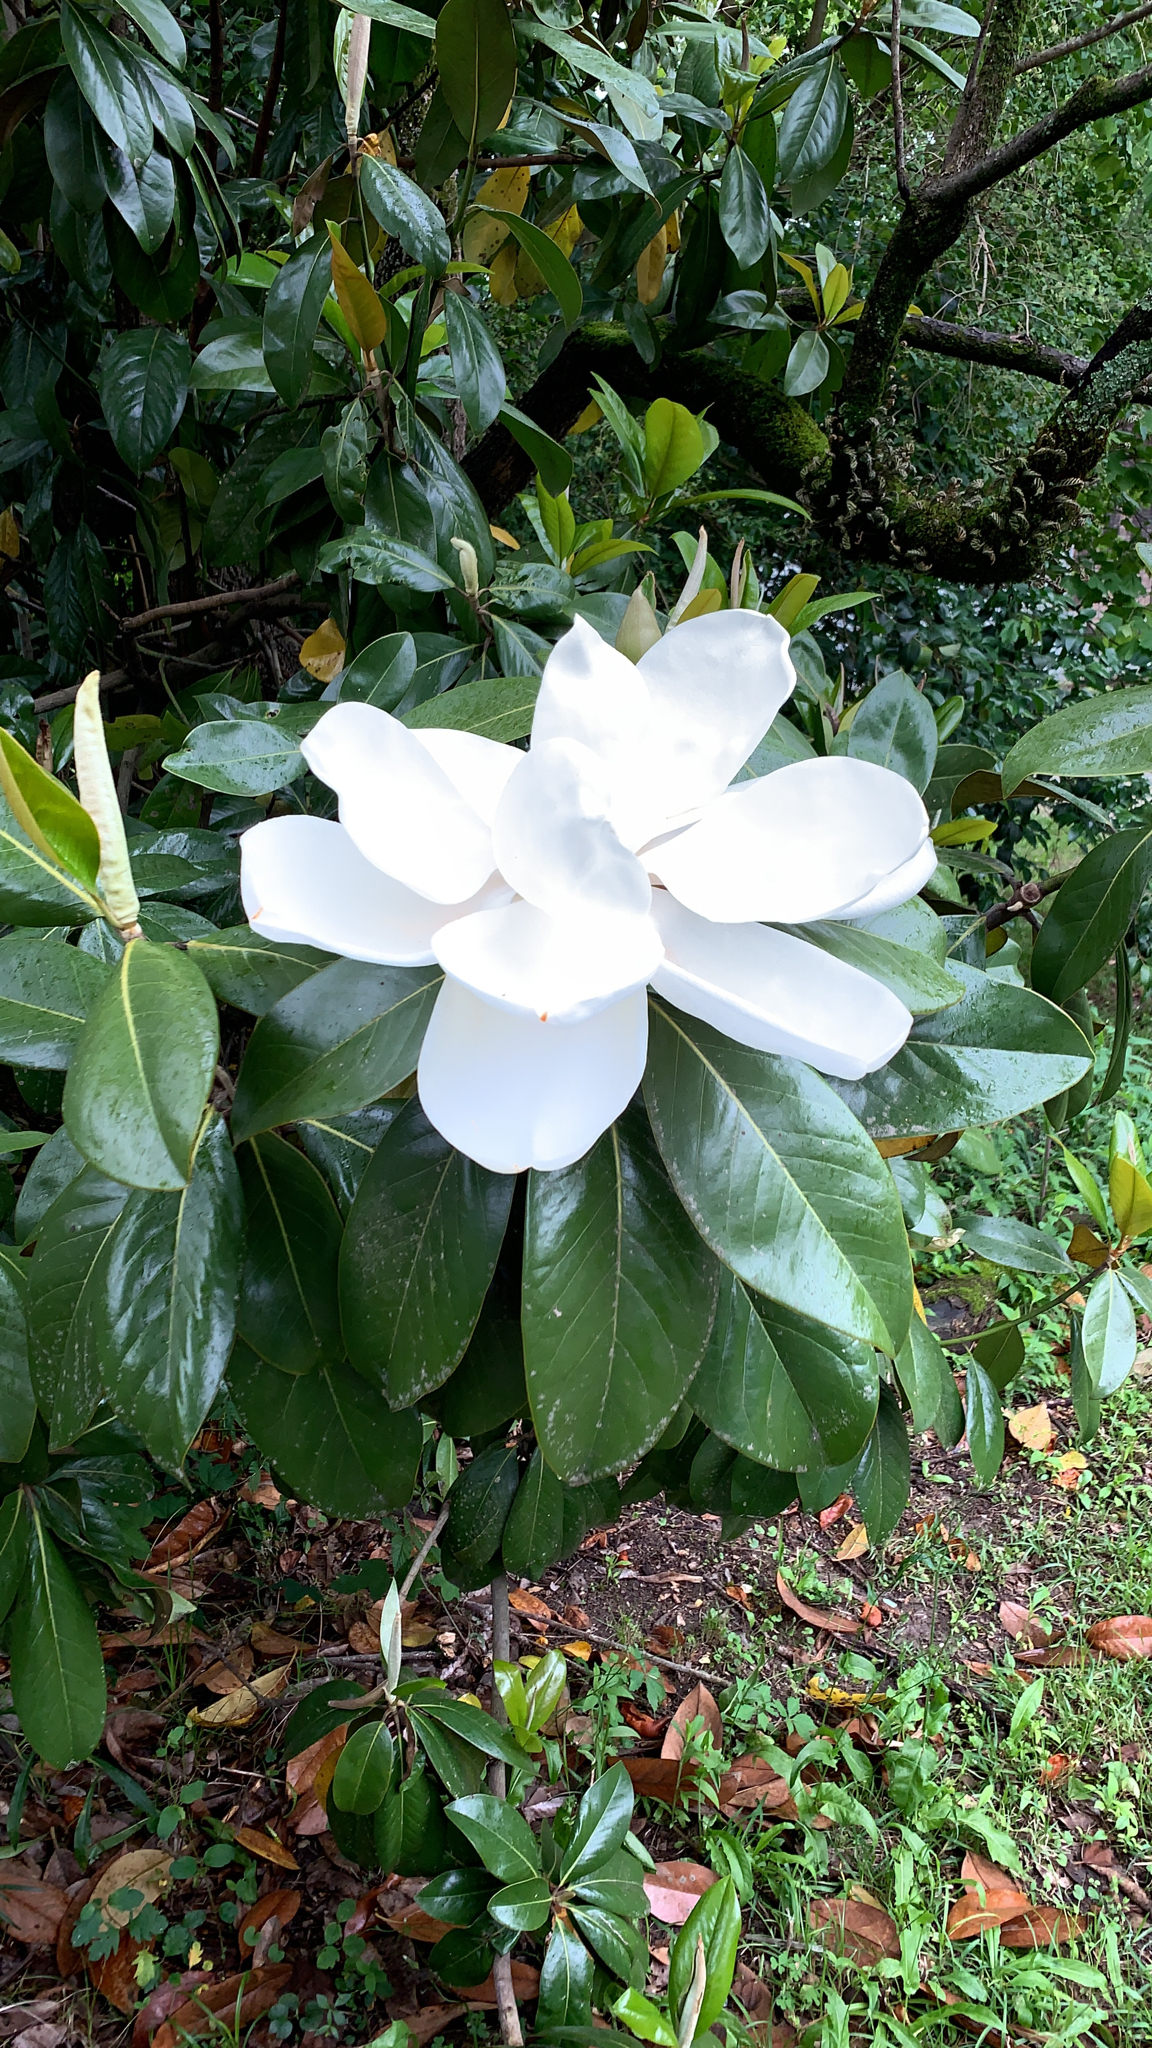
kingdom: Plantae
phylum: Tracheophyta
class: Magnoliopsida
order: Magnoliales
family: Magnoliaceae
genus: Magnolia
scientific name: Magnolia grandiflora
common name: Southern magnolia
